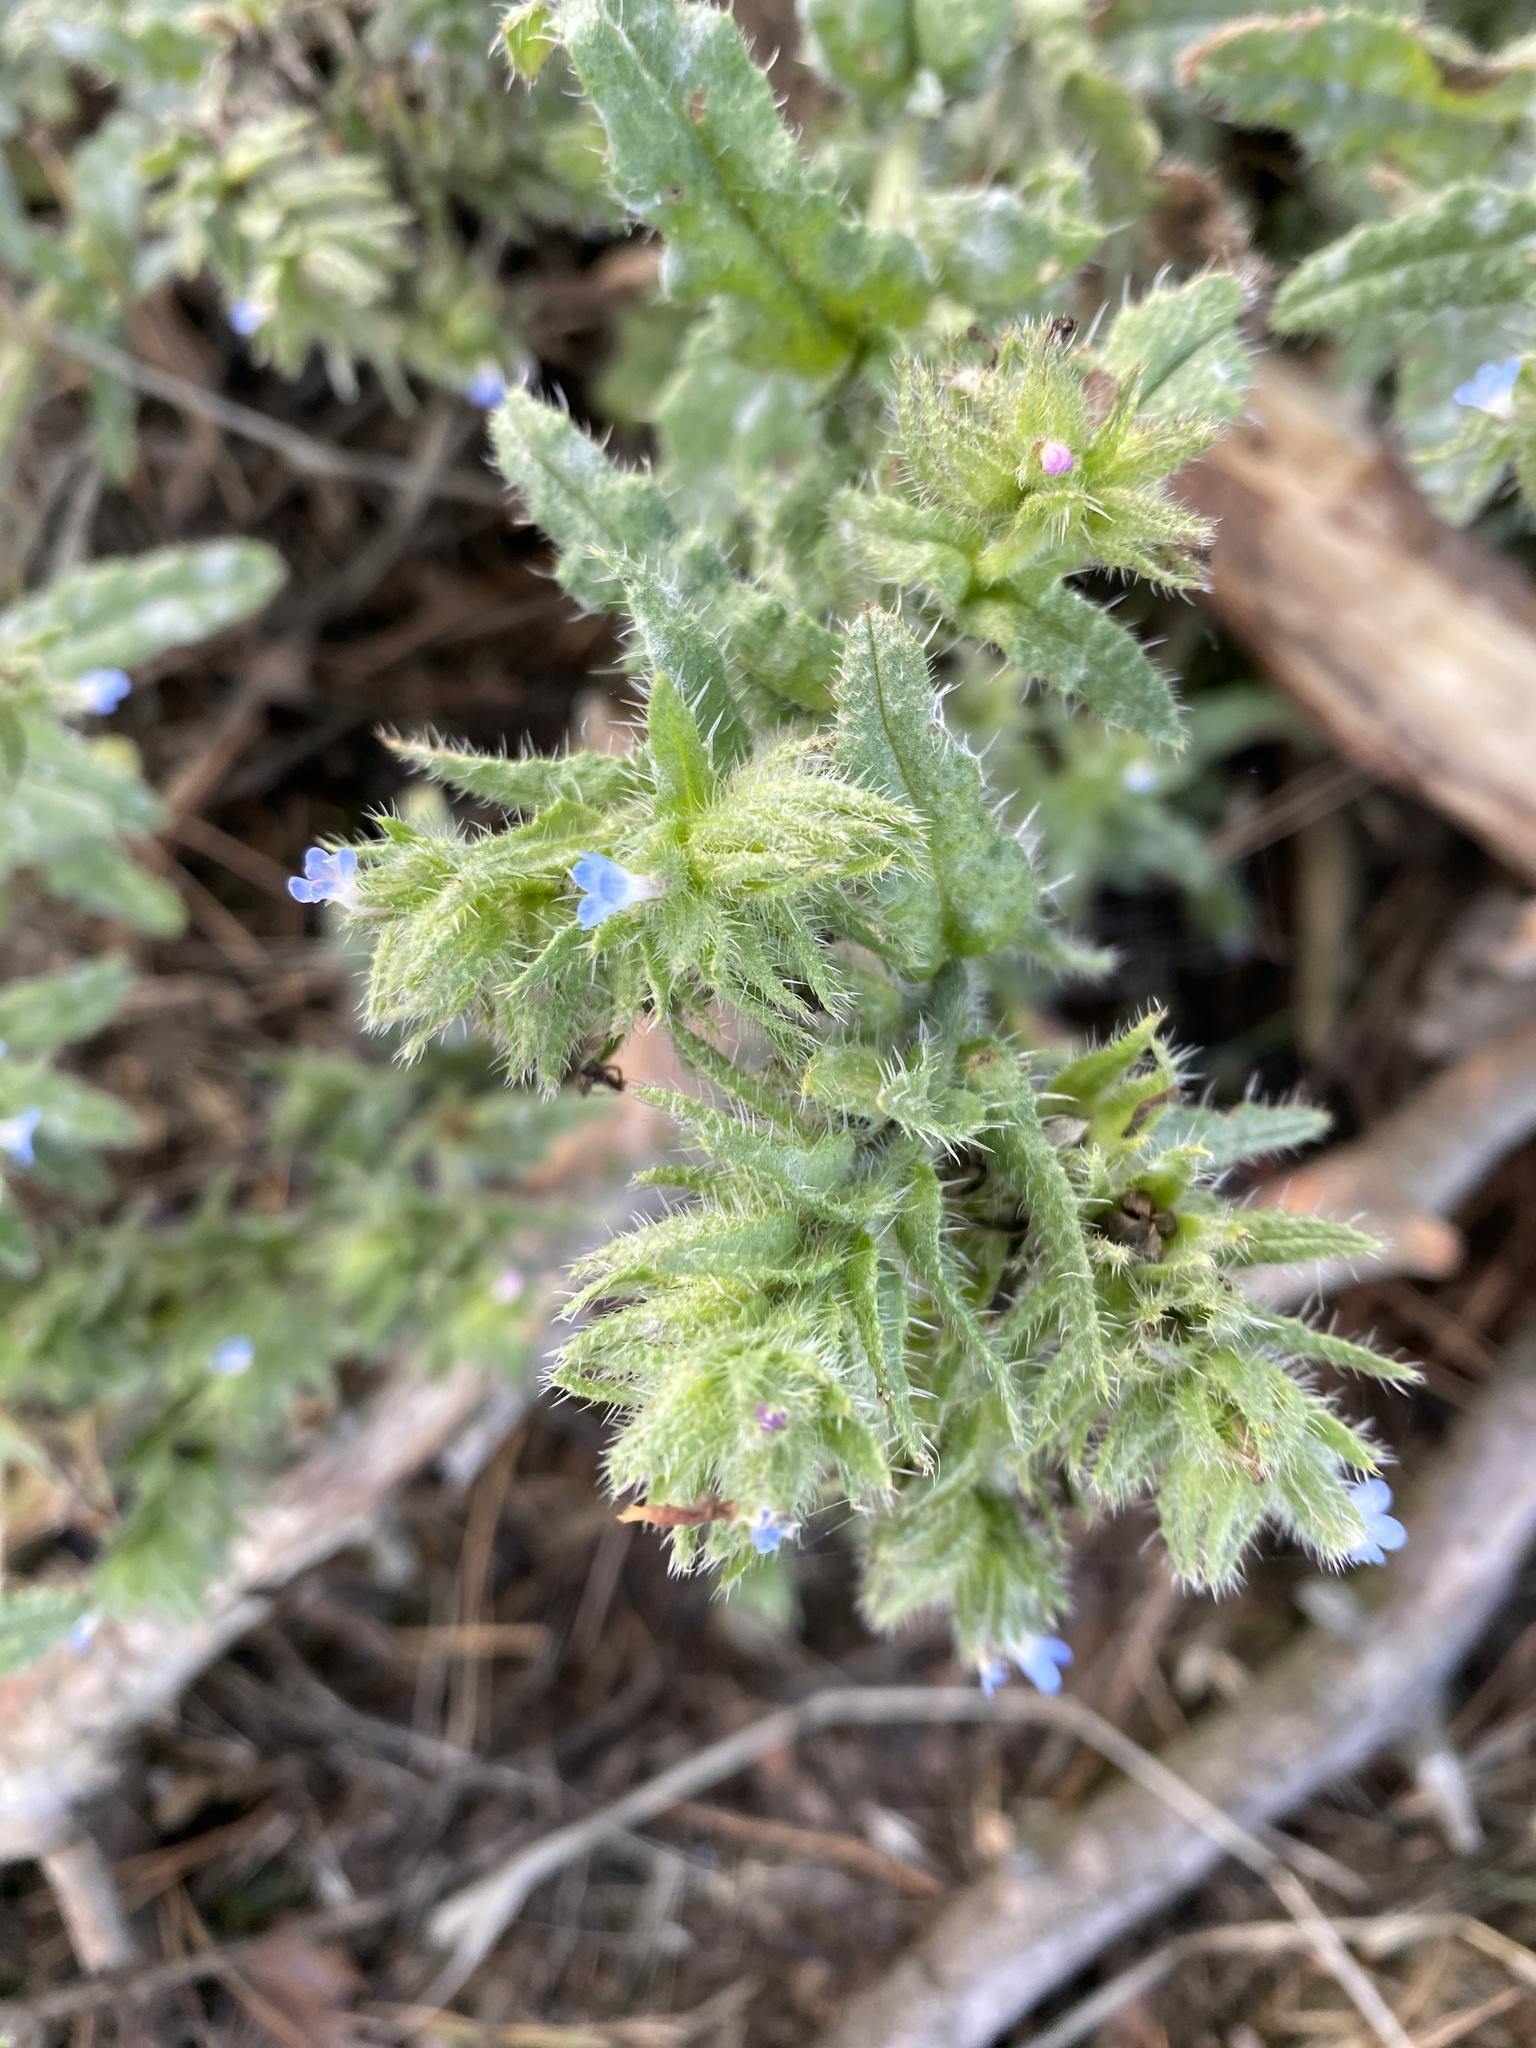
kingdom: Plantae
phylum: Tracheophyta
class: Magnoliopsida
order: Boraginales
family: Boraginaceae
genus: Lycopsis
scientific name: Lycopsis arvensis
